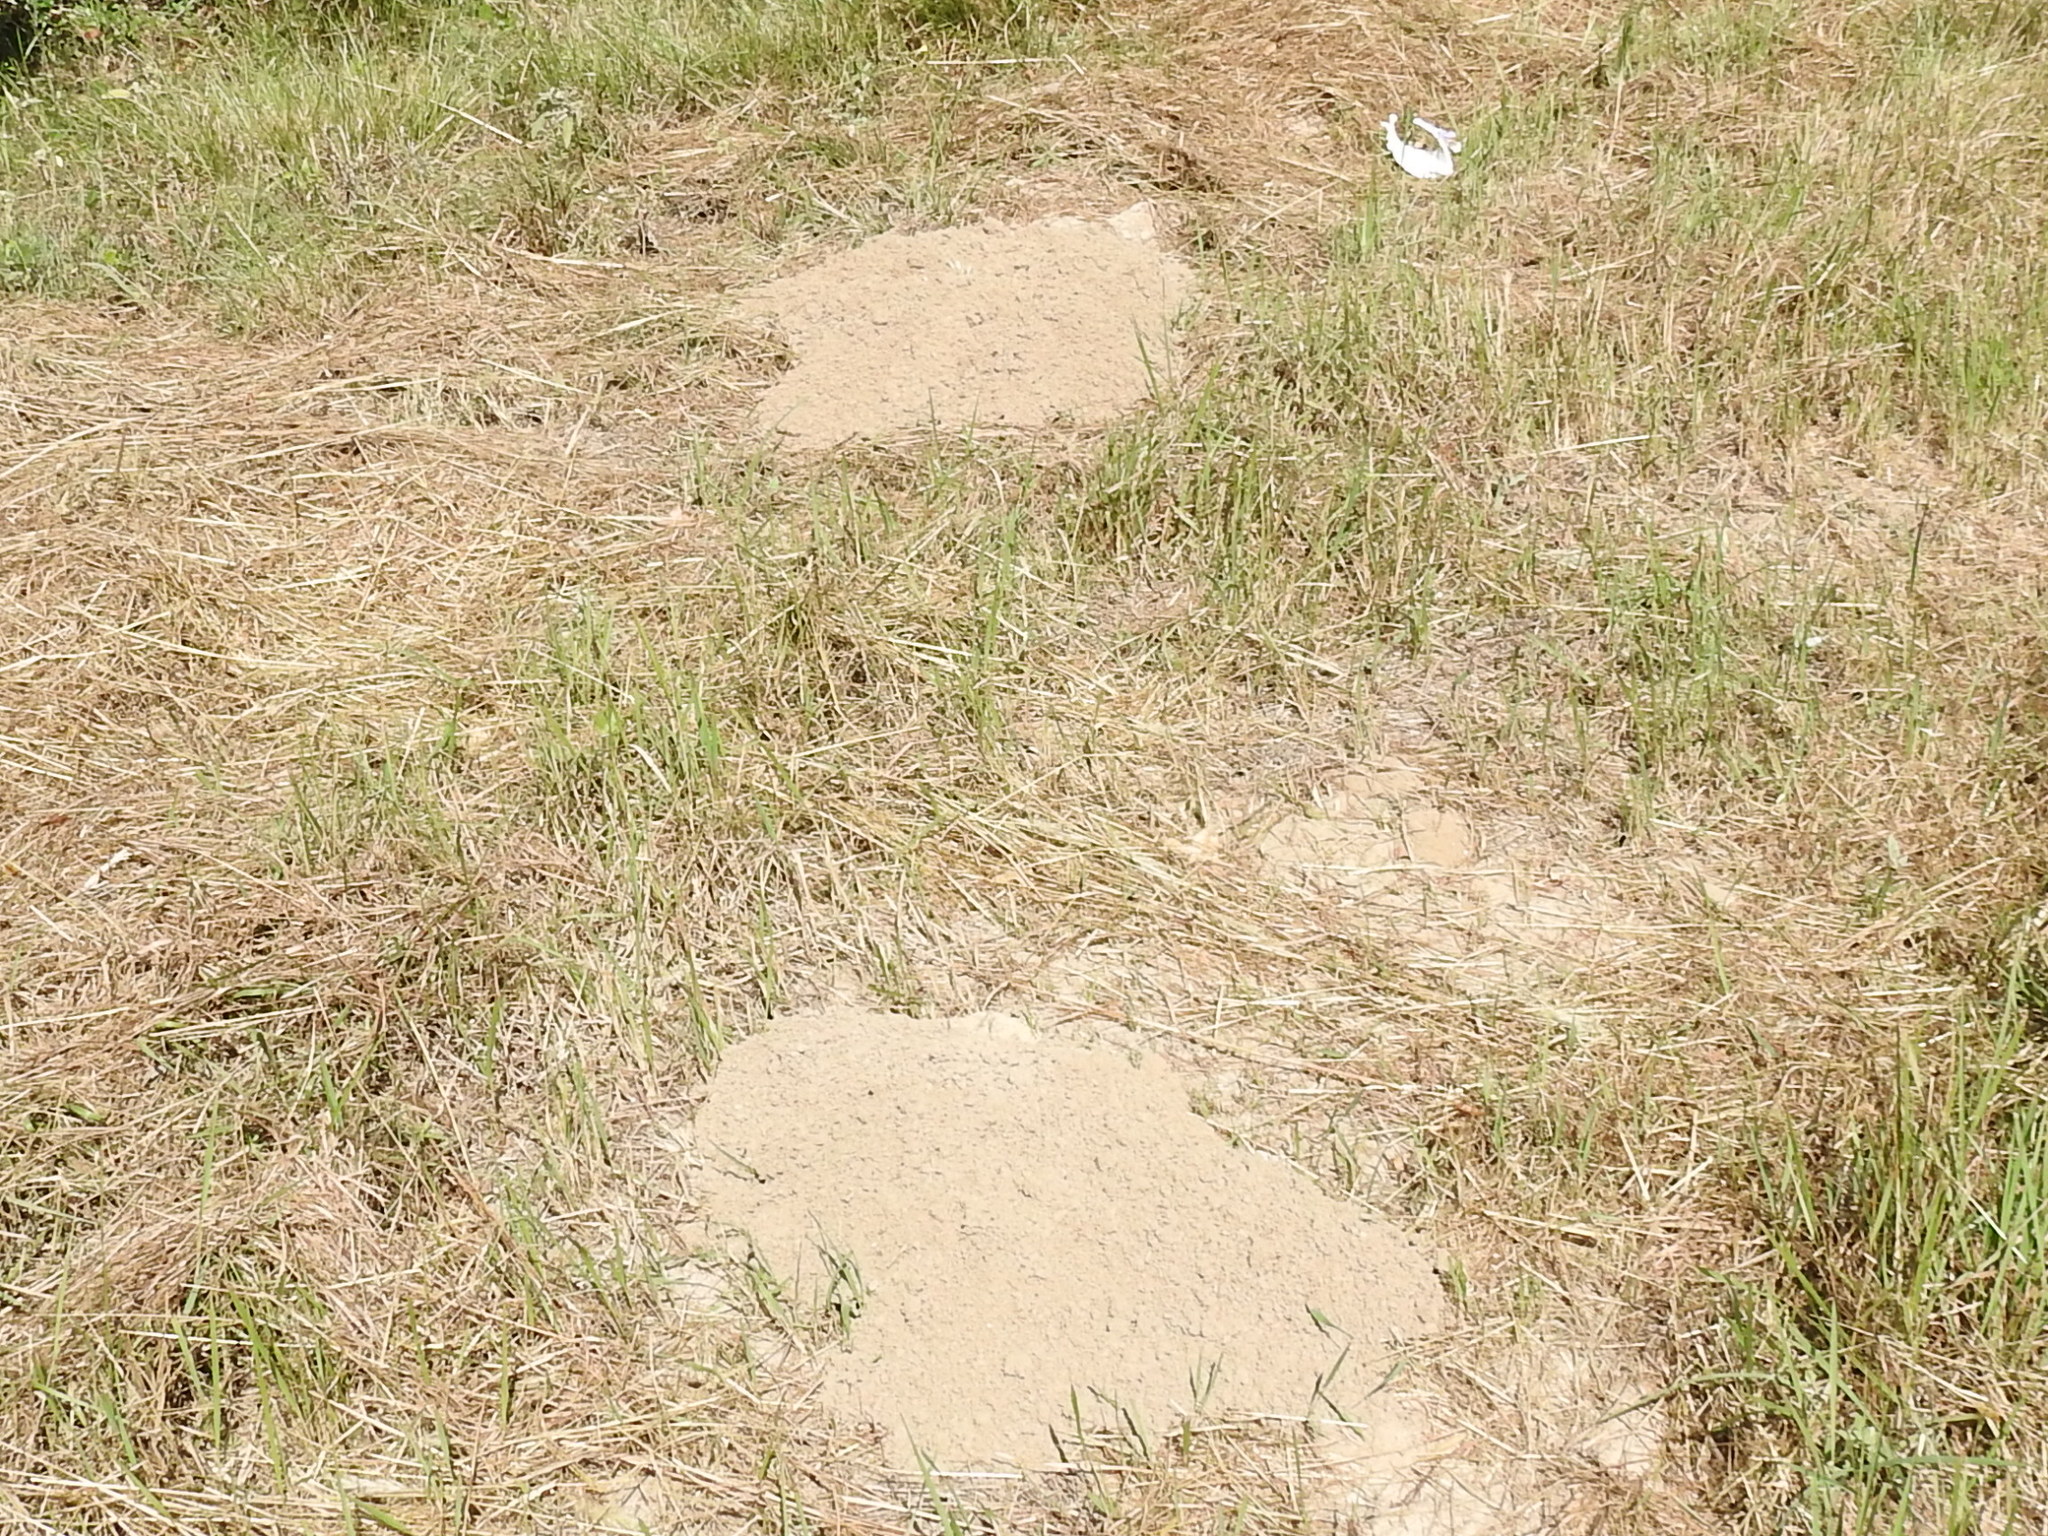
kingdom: Animalia
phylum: Chordata
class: Mammalia
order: Rodentia
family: Geomyidae
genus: Geomys
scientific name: Geomys attwateri
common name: Attwater's pocket gopher
